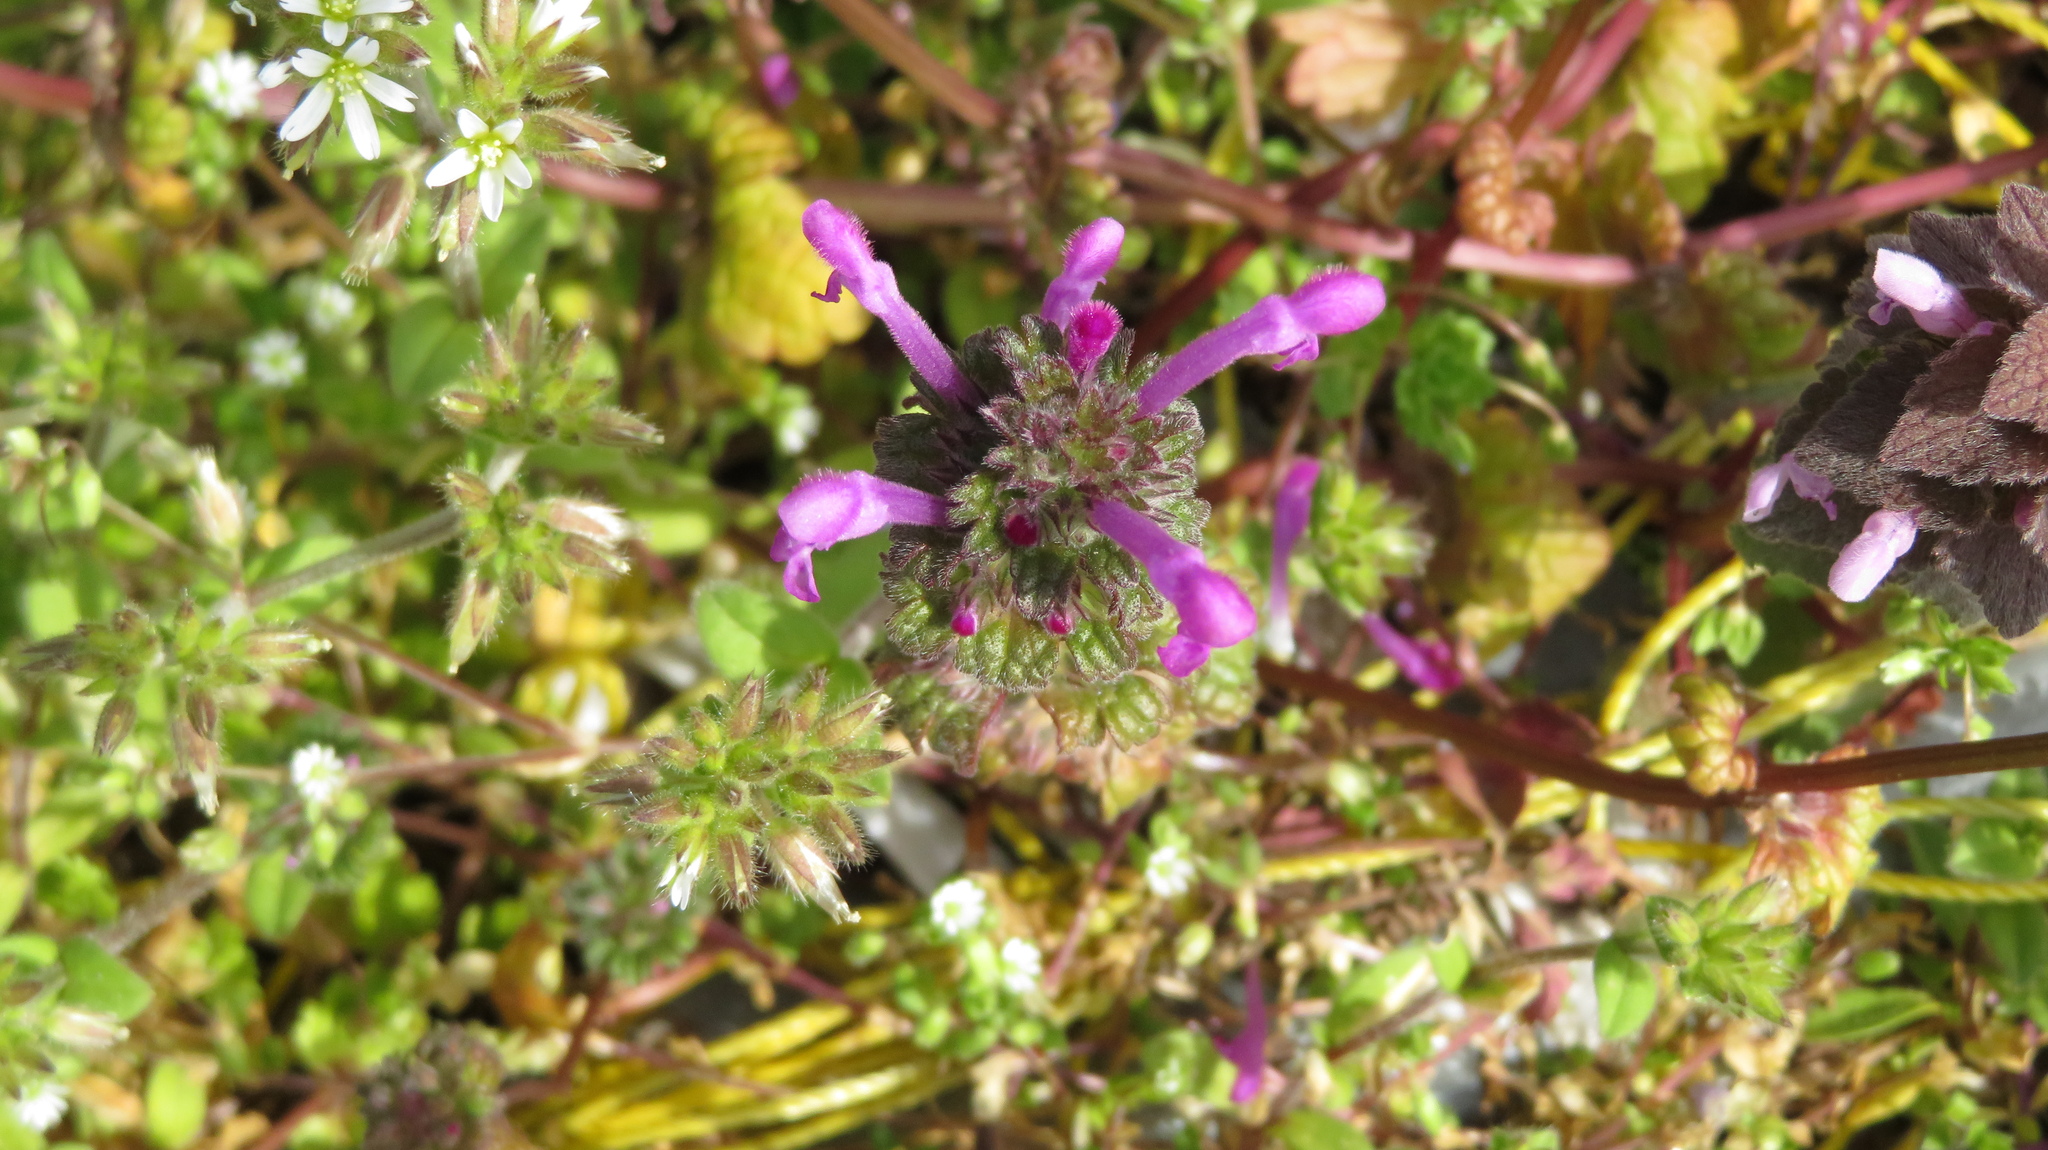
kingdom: Plantae
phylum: Tracheophyta
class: Magnoliopsida
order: Lamiales
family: Lamiaceae
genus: Lamium
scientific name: Lamium amplexicaule
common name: Henbit dead-nettle
